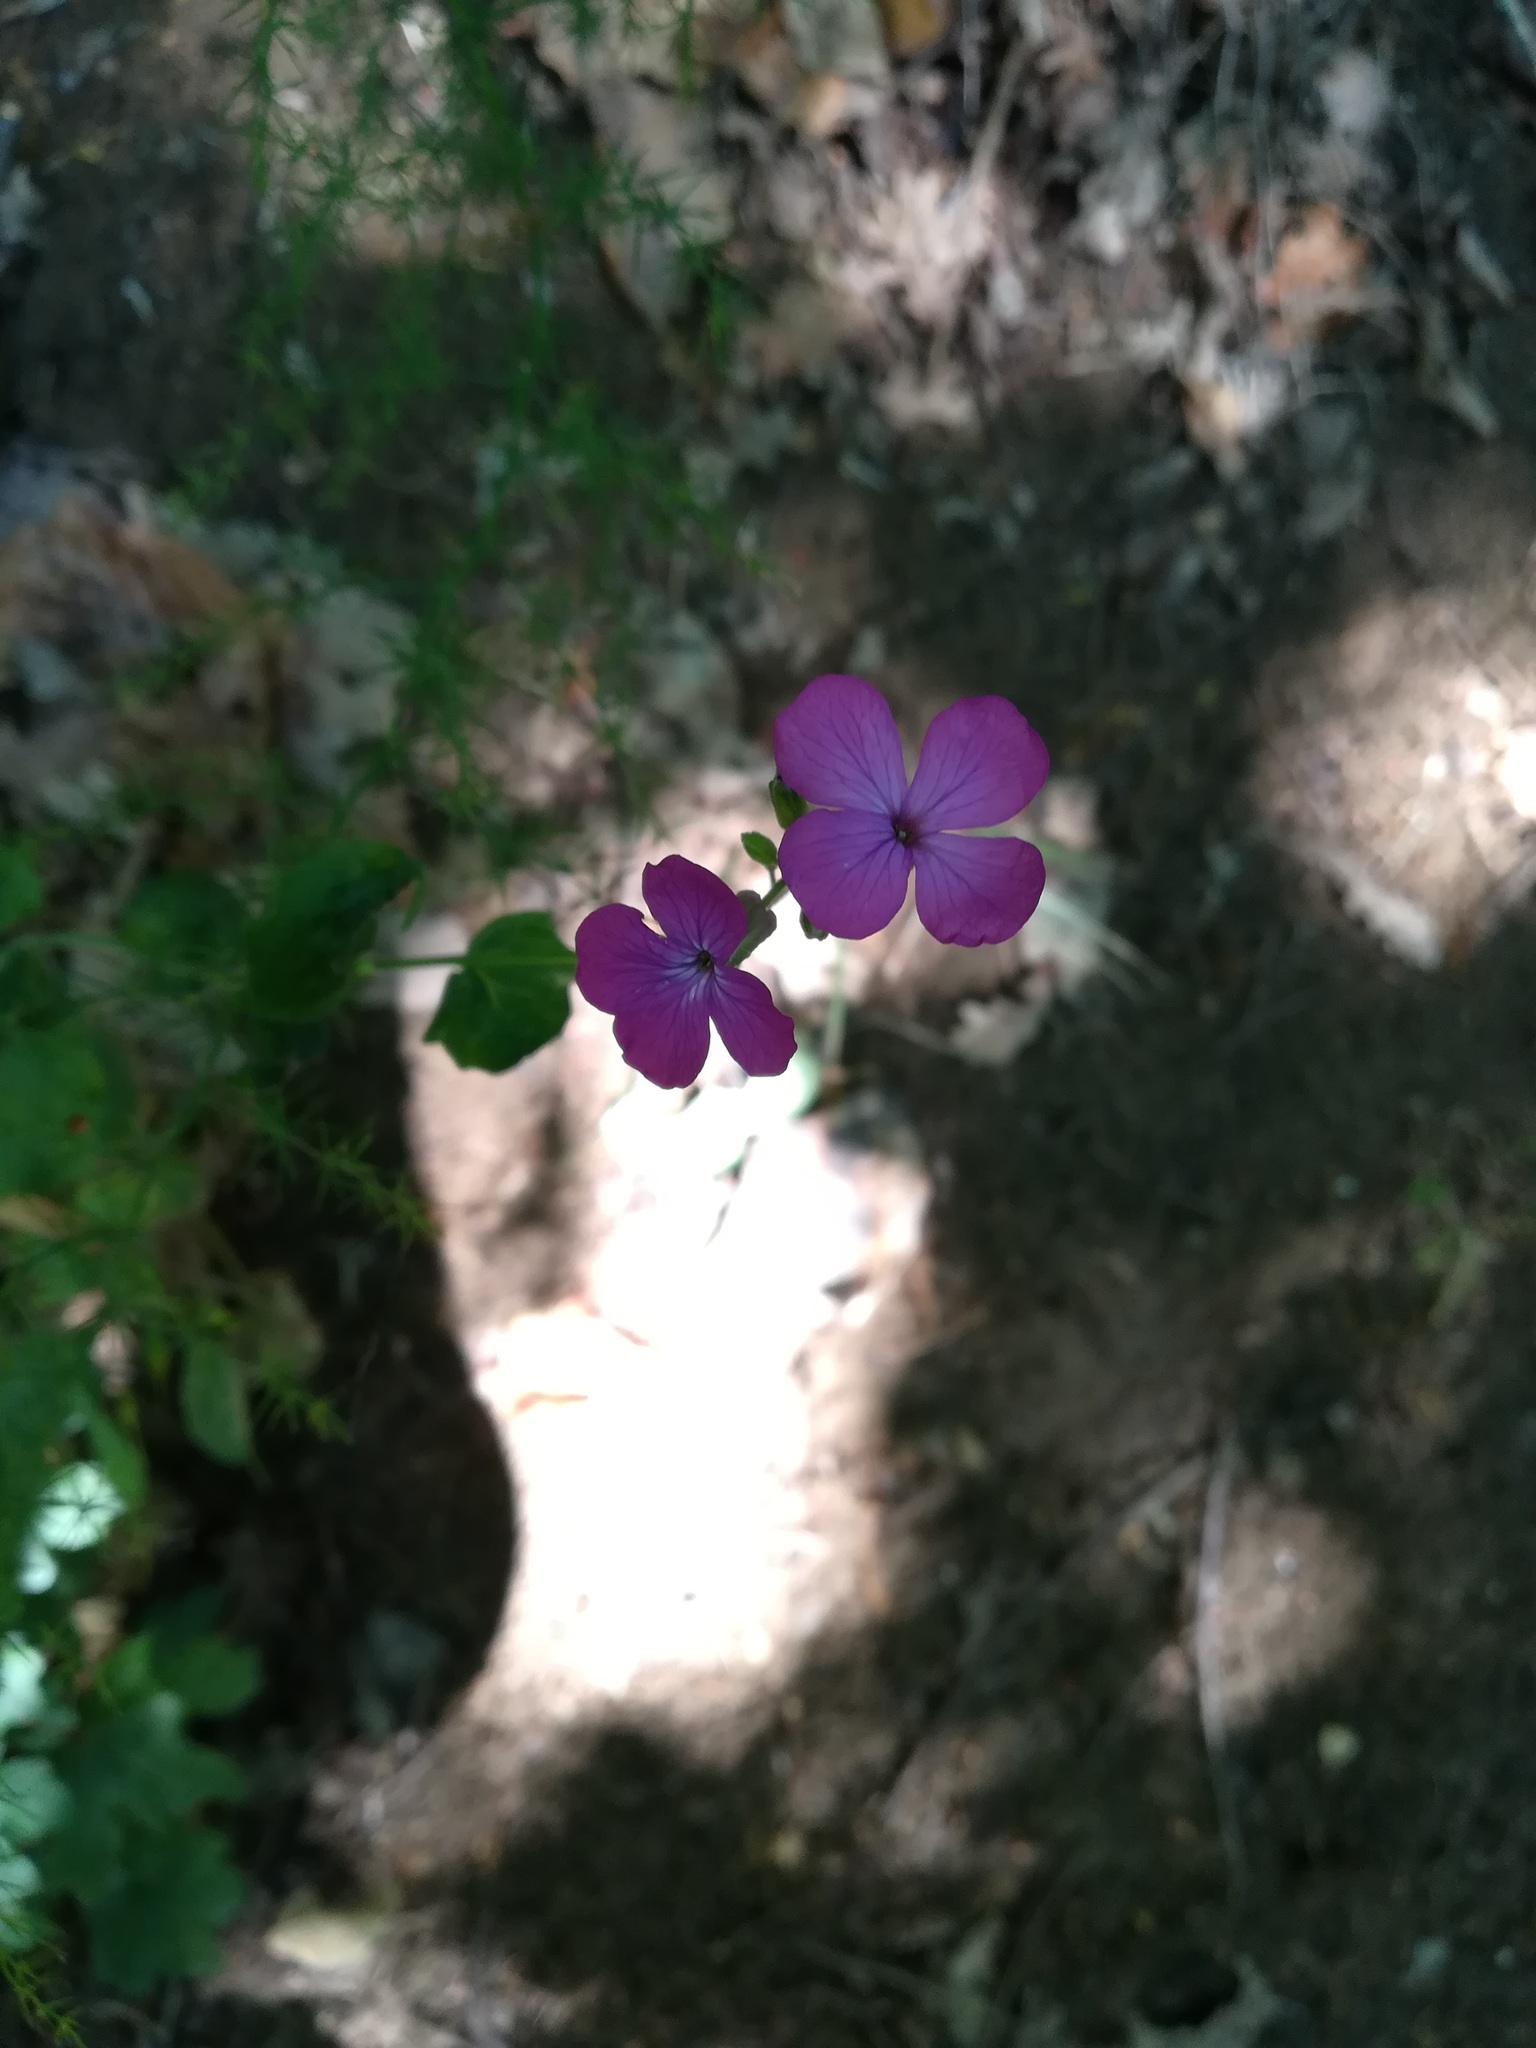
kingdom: Plantae
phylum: Tracheophyta
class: Magnoliopsida
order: Brassicales
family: Brassicaceae
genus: Lunaria
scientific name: Lunaria annua
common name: Honesty
